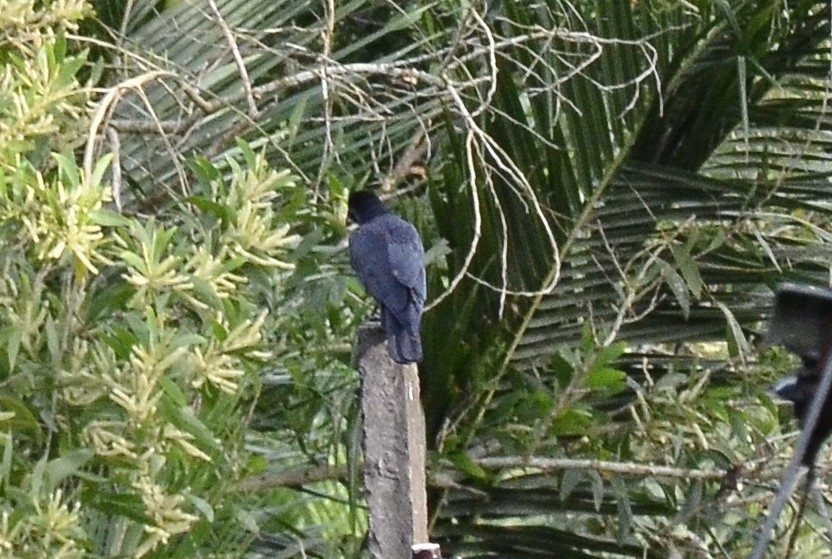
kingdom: Animalia
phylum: Chordata
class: Aves
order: Passeriformes
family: Corvidae
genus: Corvus
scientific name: Corvus macrorhynchos
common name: Large-billed crow
